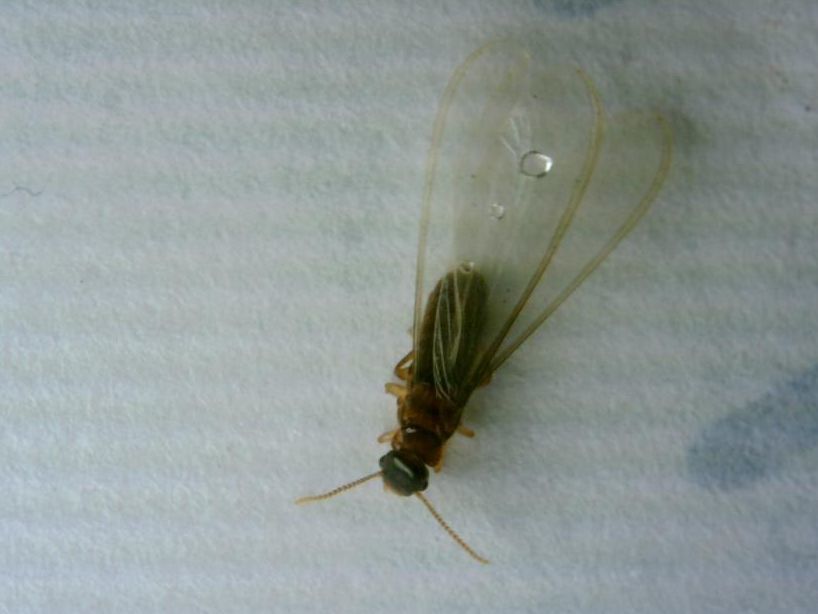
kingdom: Animalia
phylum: Arthropoda
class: Insecta
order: Blattodea
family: Rhinotermitidae
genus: Coptotermes
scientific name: Coptotermes gestroi
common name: Subterranean termite
